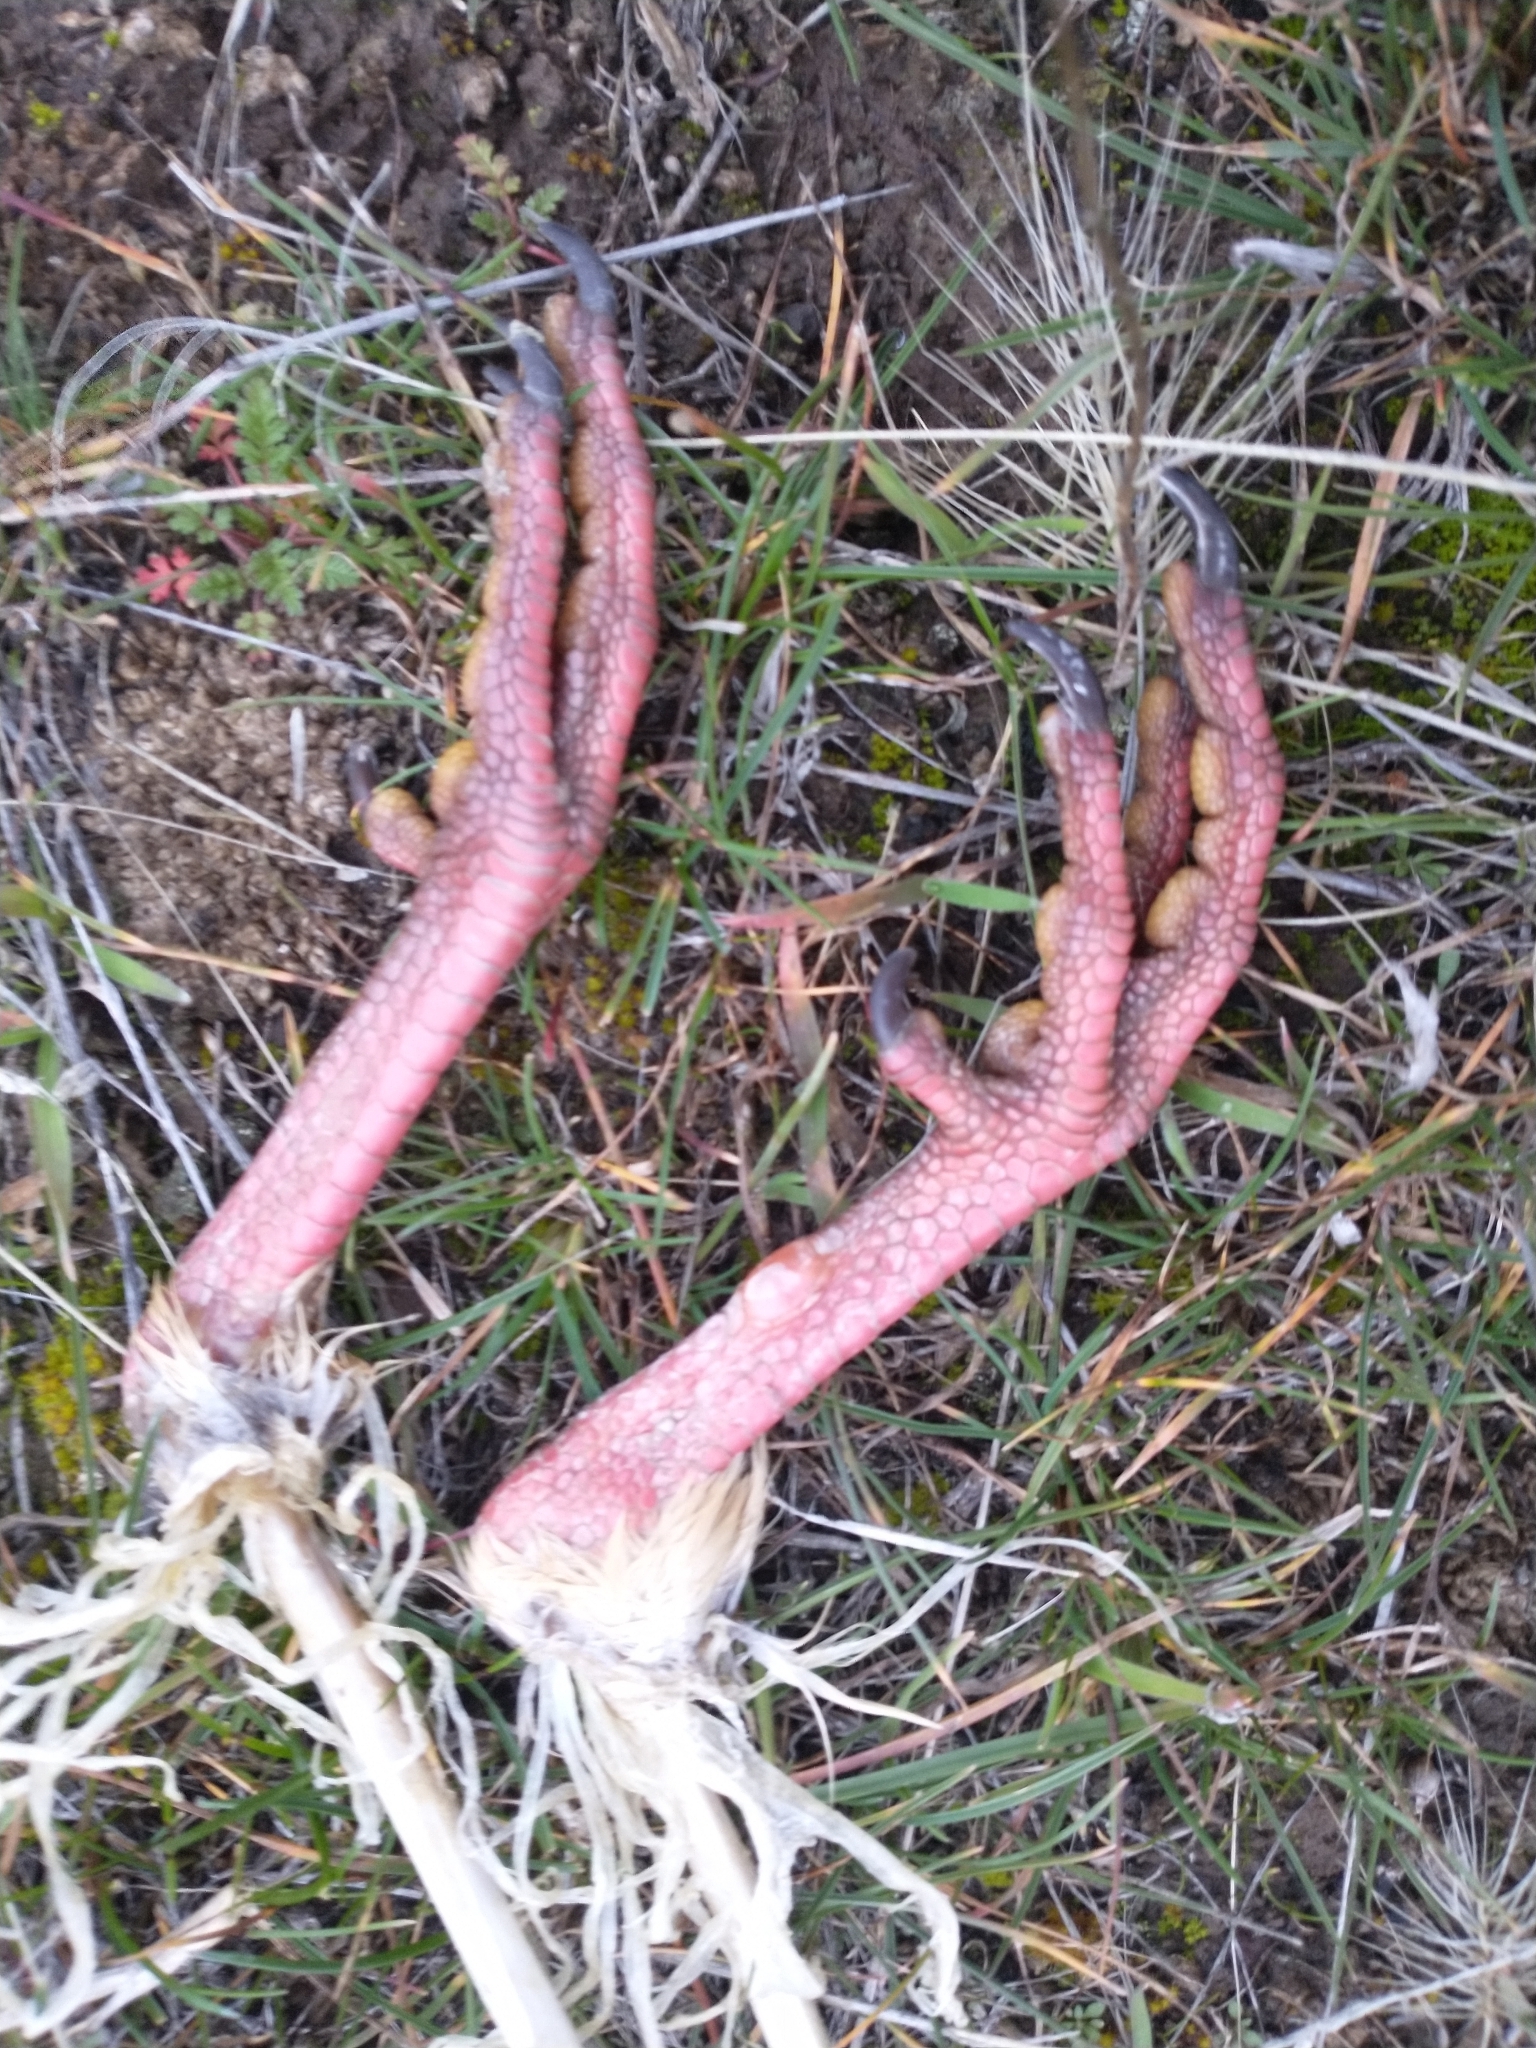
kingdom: Animalia
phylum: Chordata
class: Aves
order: Galliformes
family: Phasianidae
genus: Alectoris
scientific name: Alectoris chukar
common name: Chukar
